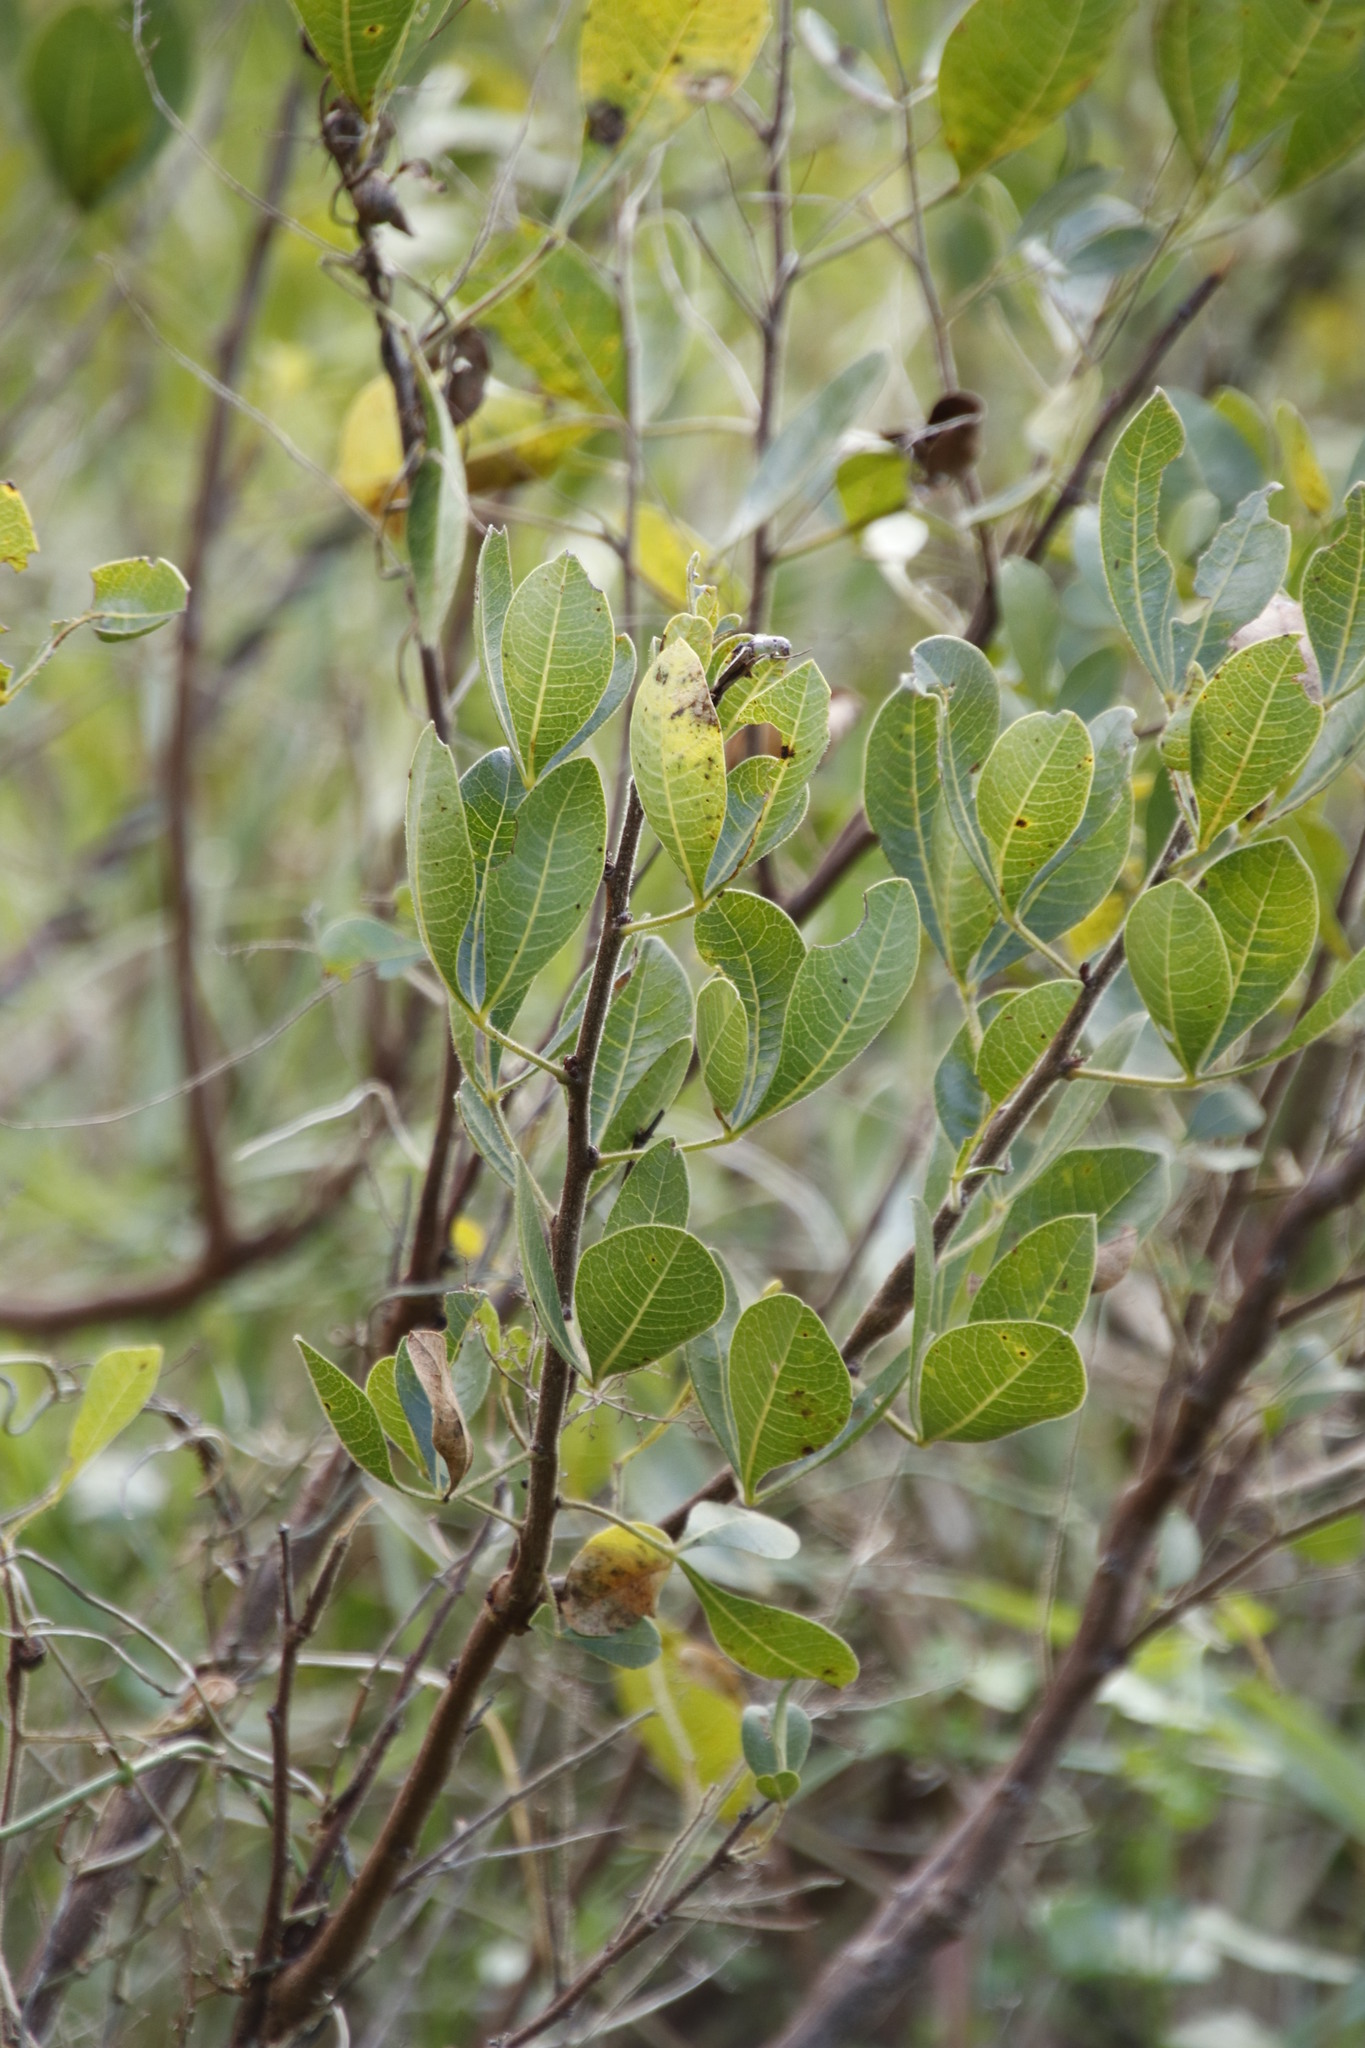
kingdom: Plantae
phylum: Tracheophyta
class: Magnoliopsida
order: Sapindales
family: Anacardiaceae
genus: Searsia
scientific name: Searsia laevigata
